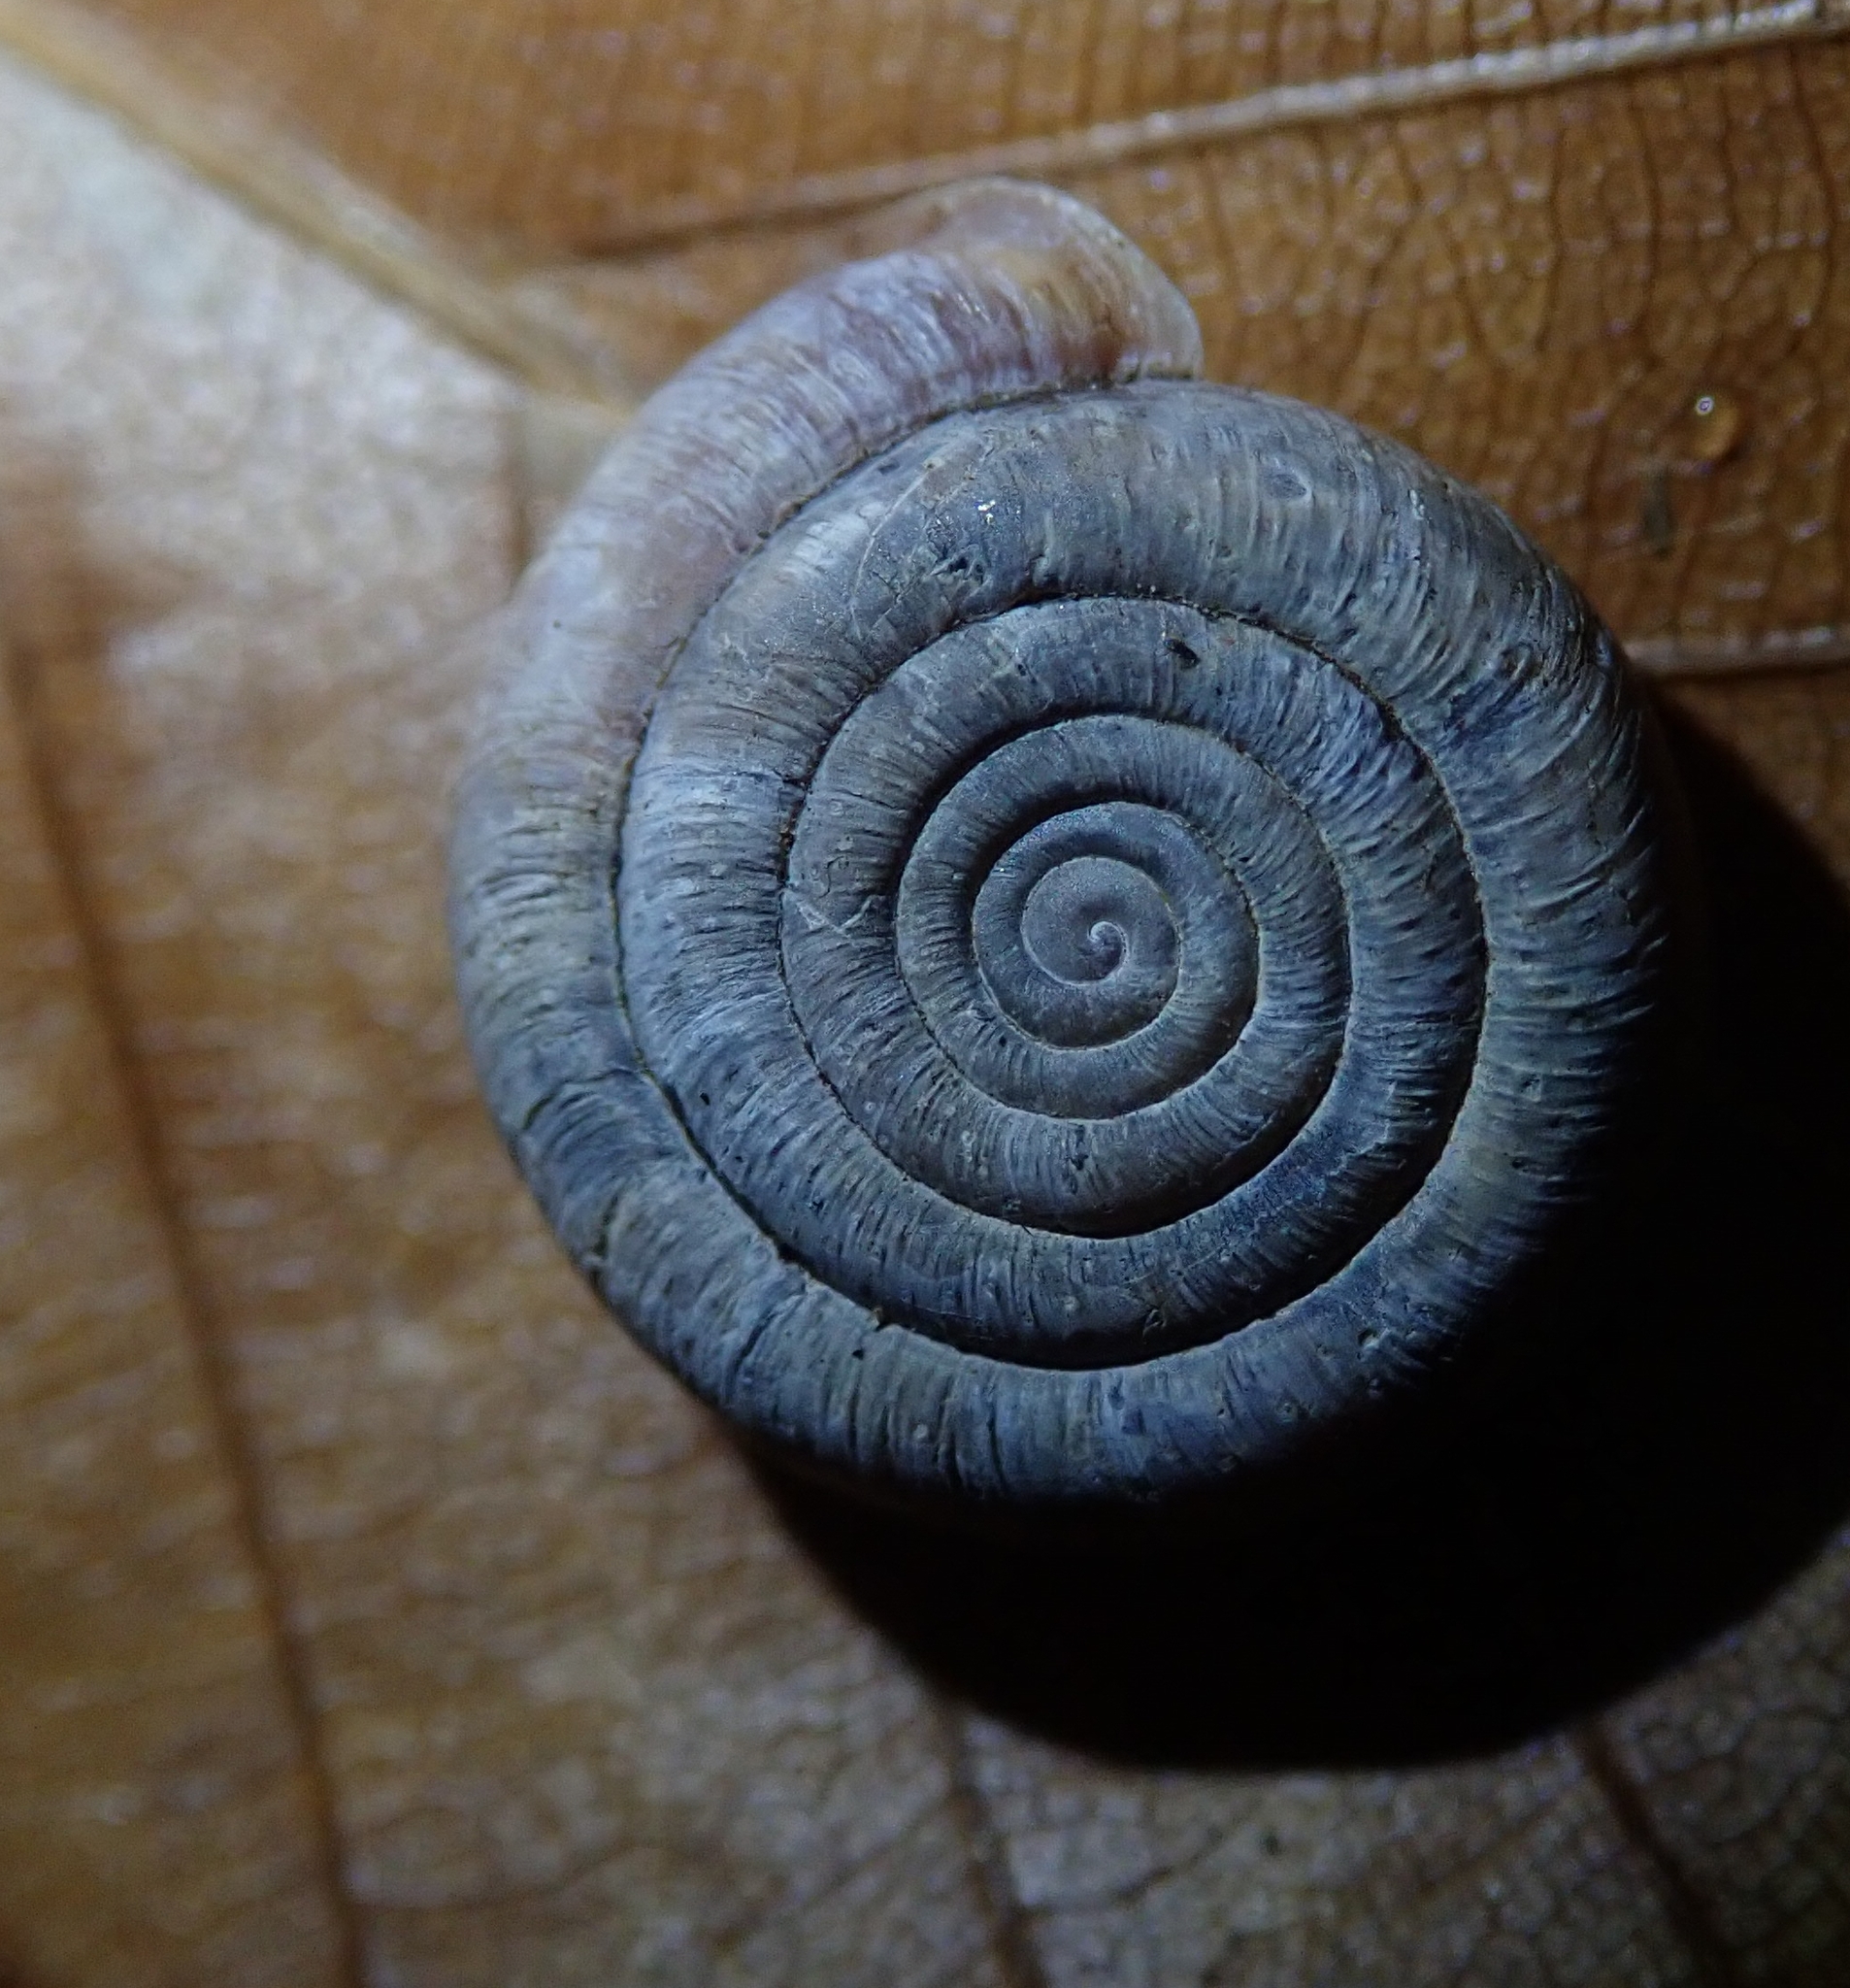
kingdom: Animalia
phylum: Mollusca
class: Gastropoda
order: Stylommatophora
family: Helicodontidae
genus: Helicodonta
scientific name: Helicodonta obvoluta
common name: Cheese snail
